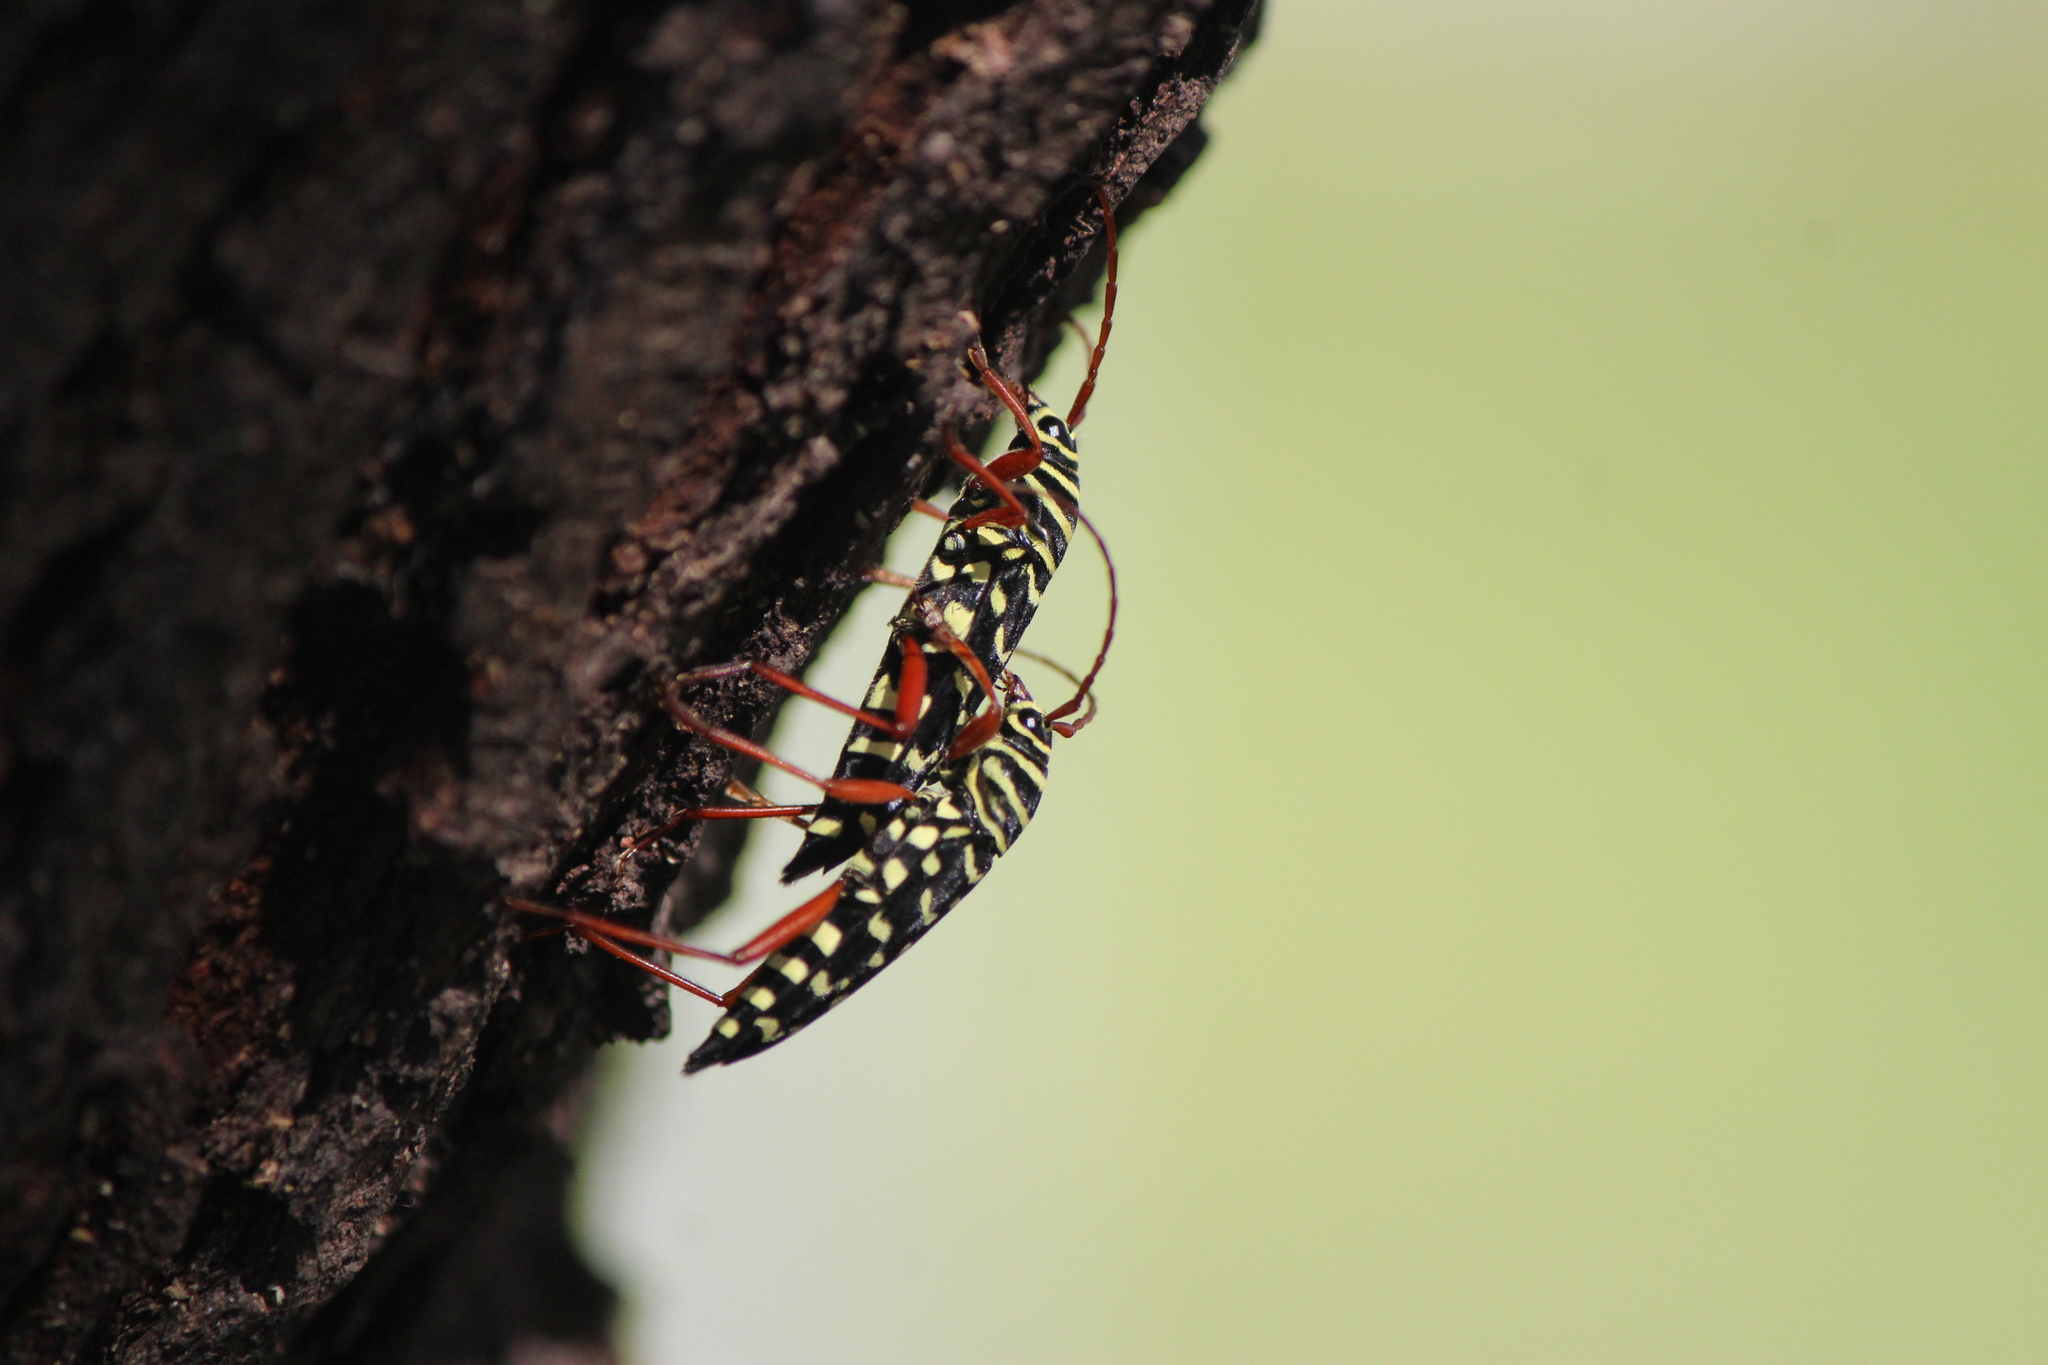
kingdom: Animalia
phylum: Arthropoda
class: Insecta
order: Coleoptera
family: Cerambycidae
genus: Placosternus
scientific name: Placosternus erythropus
